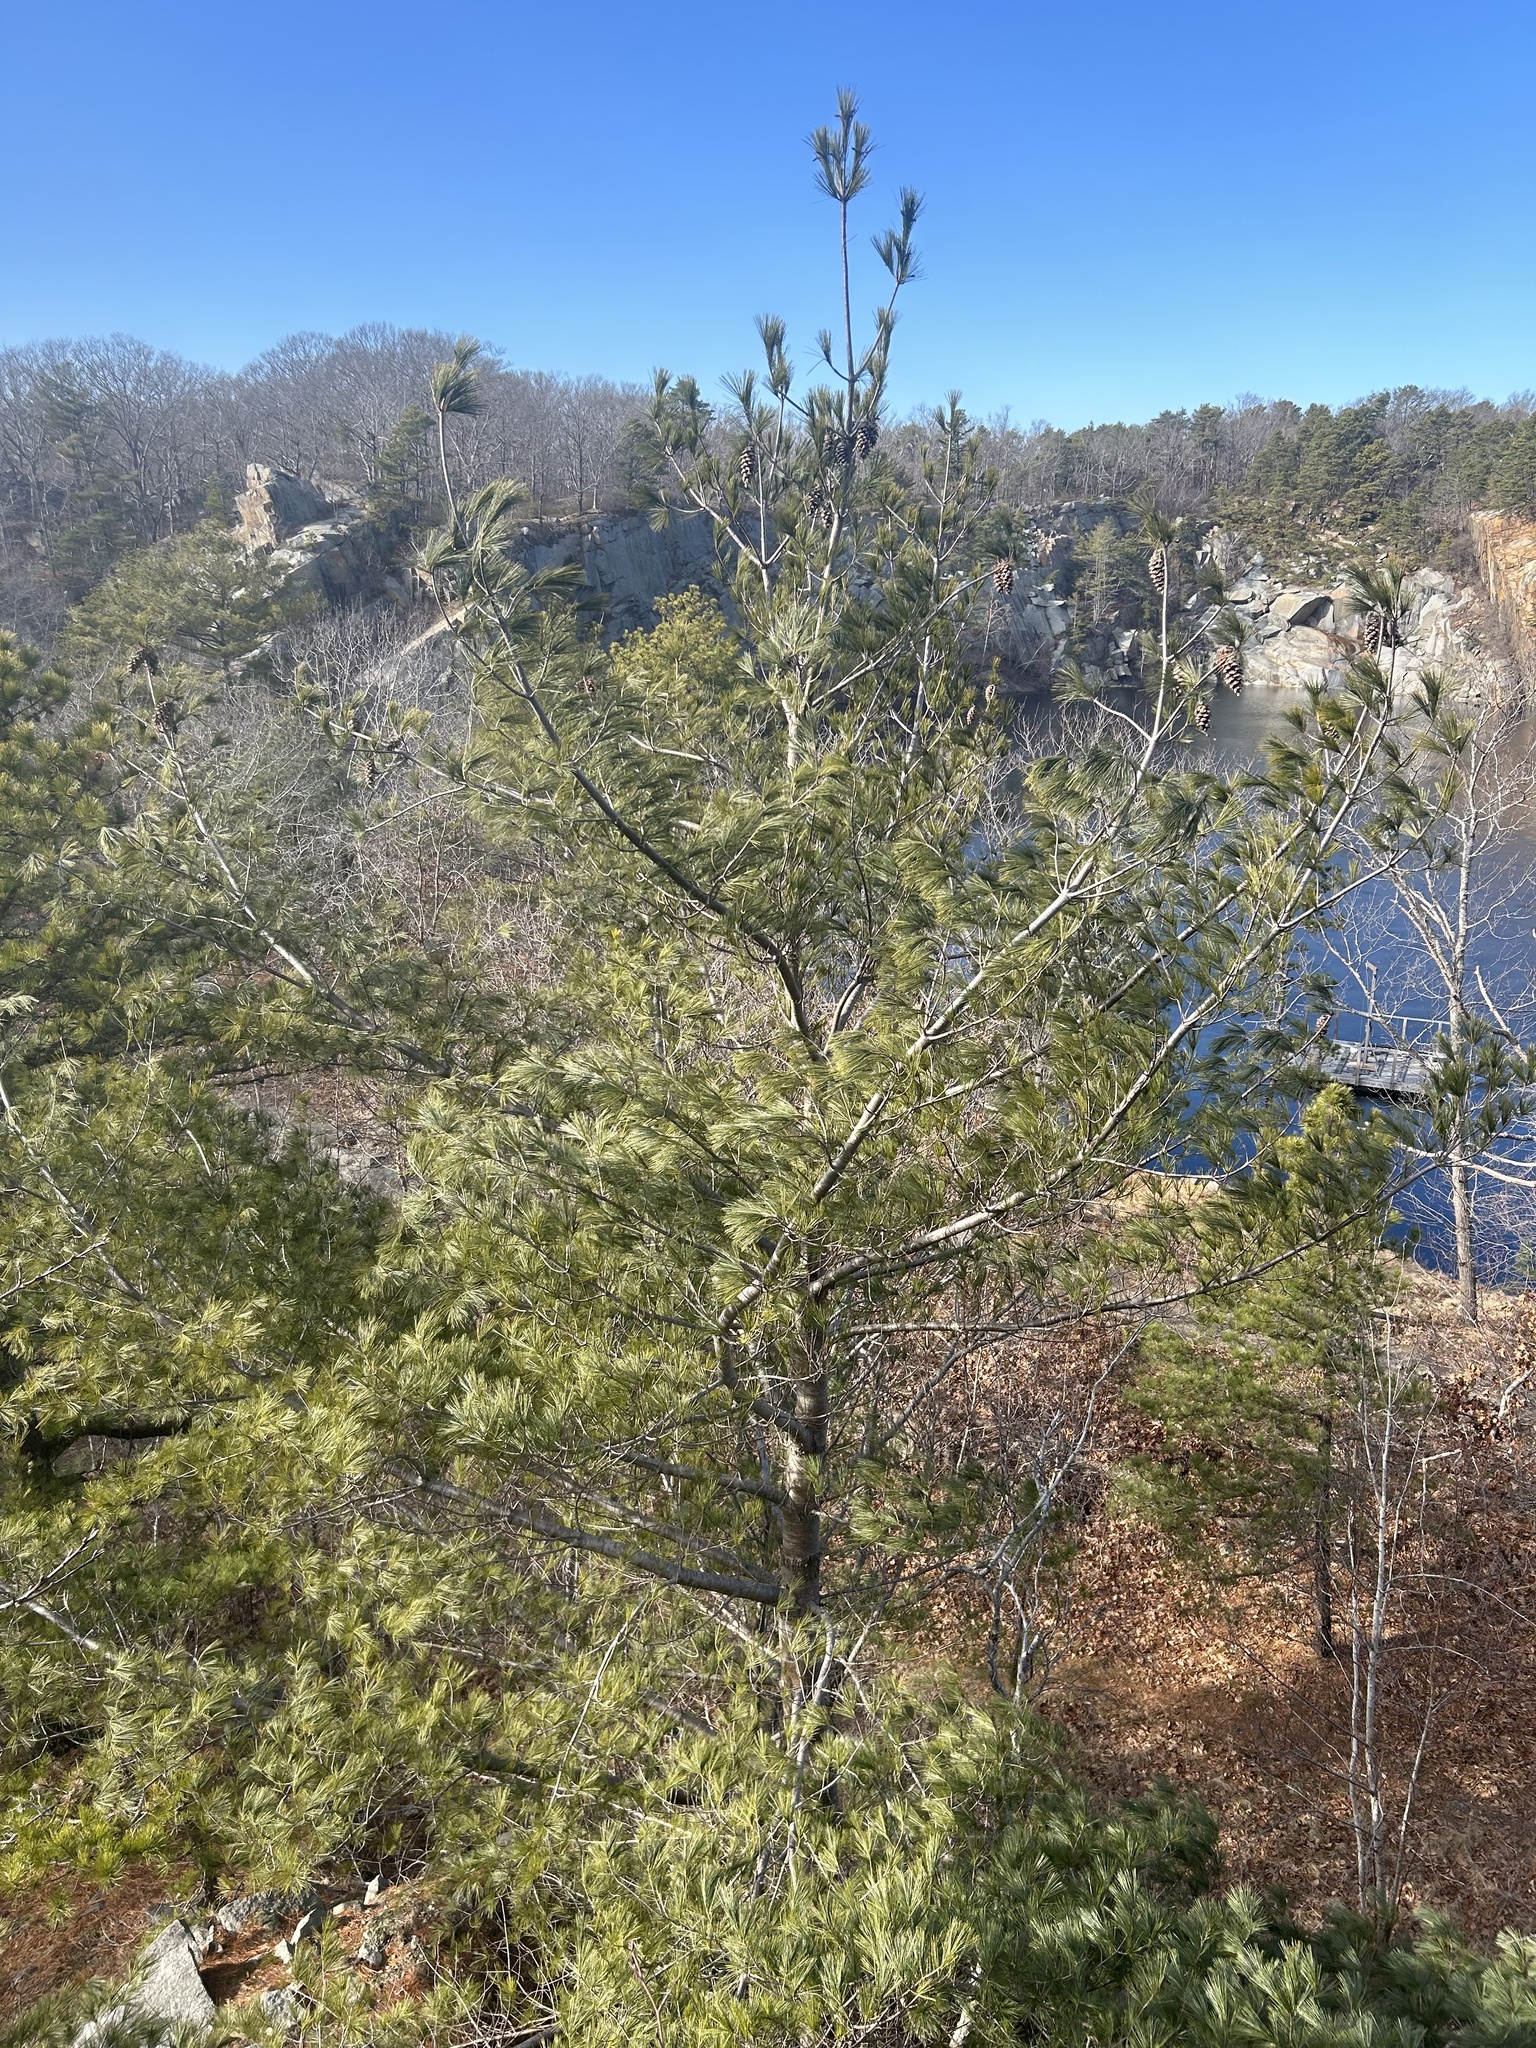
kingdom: Plantae
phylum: Tracheophyta
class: Pinopsida
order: Pinales
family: Pinaceae
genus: Pinus
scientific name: Pinus strobus
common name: Weymouth pine
